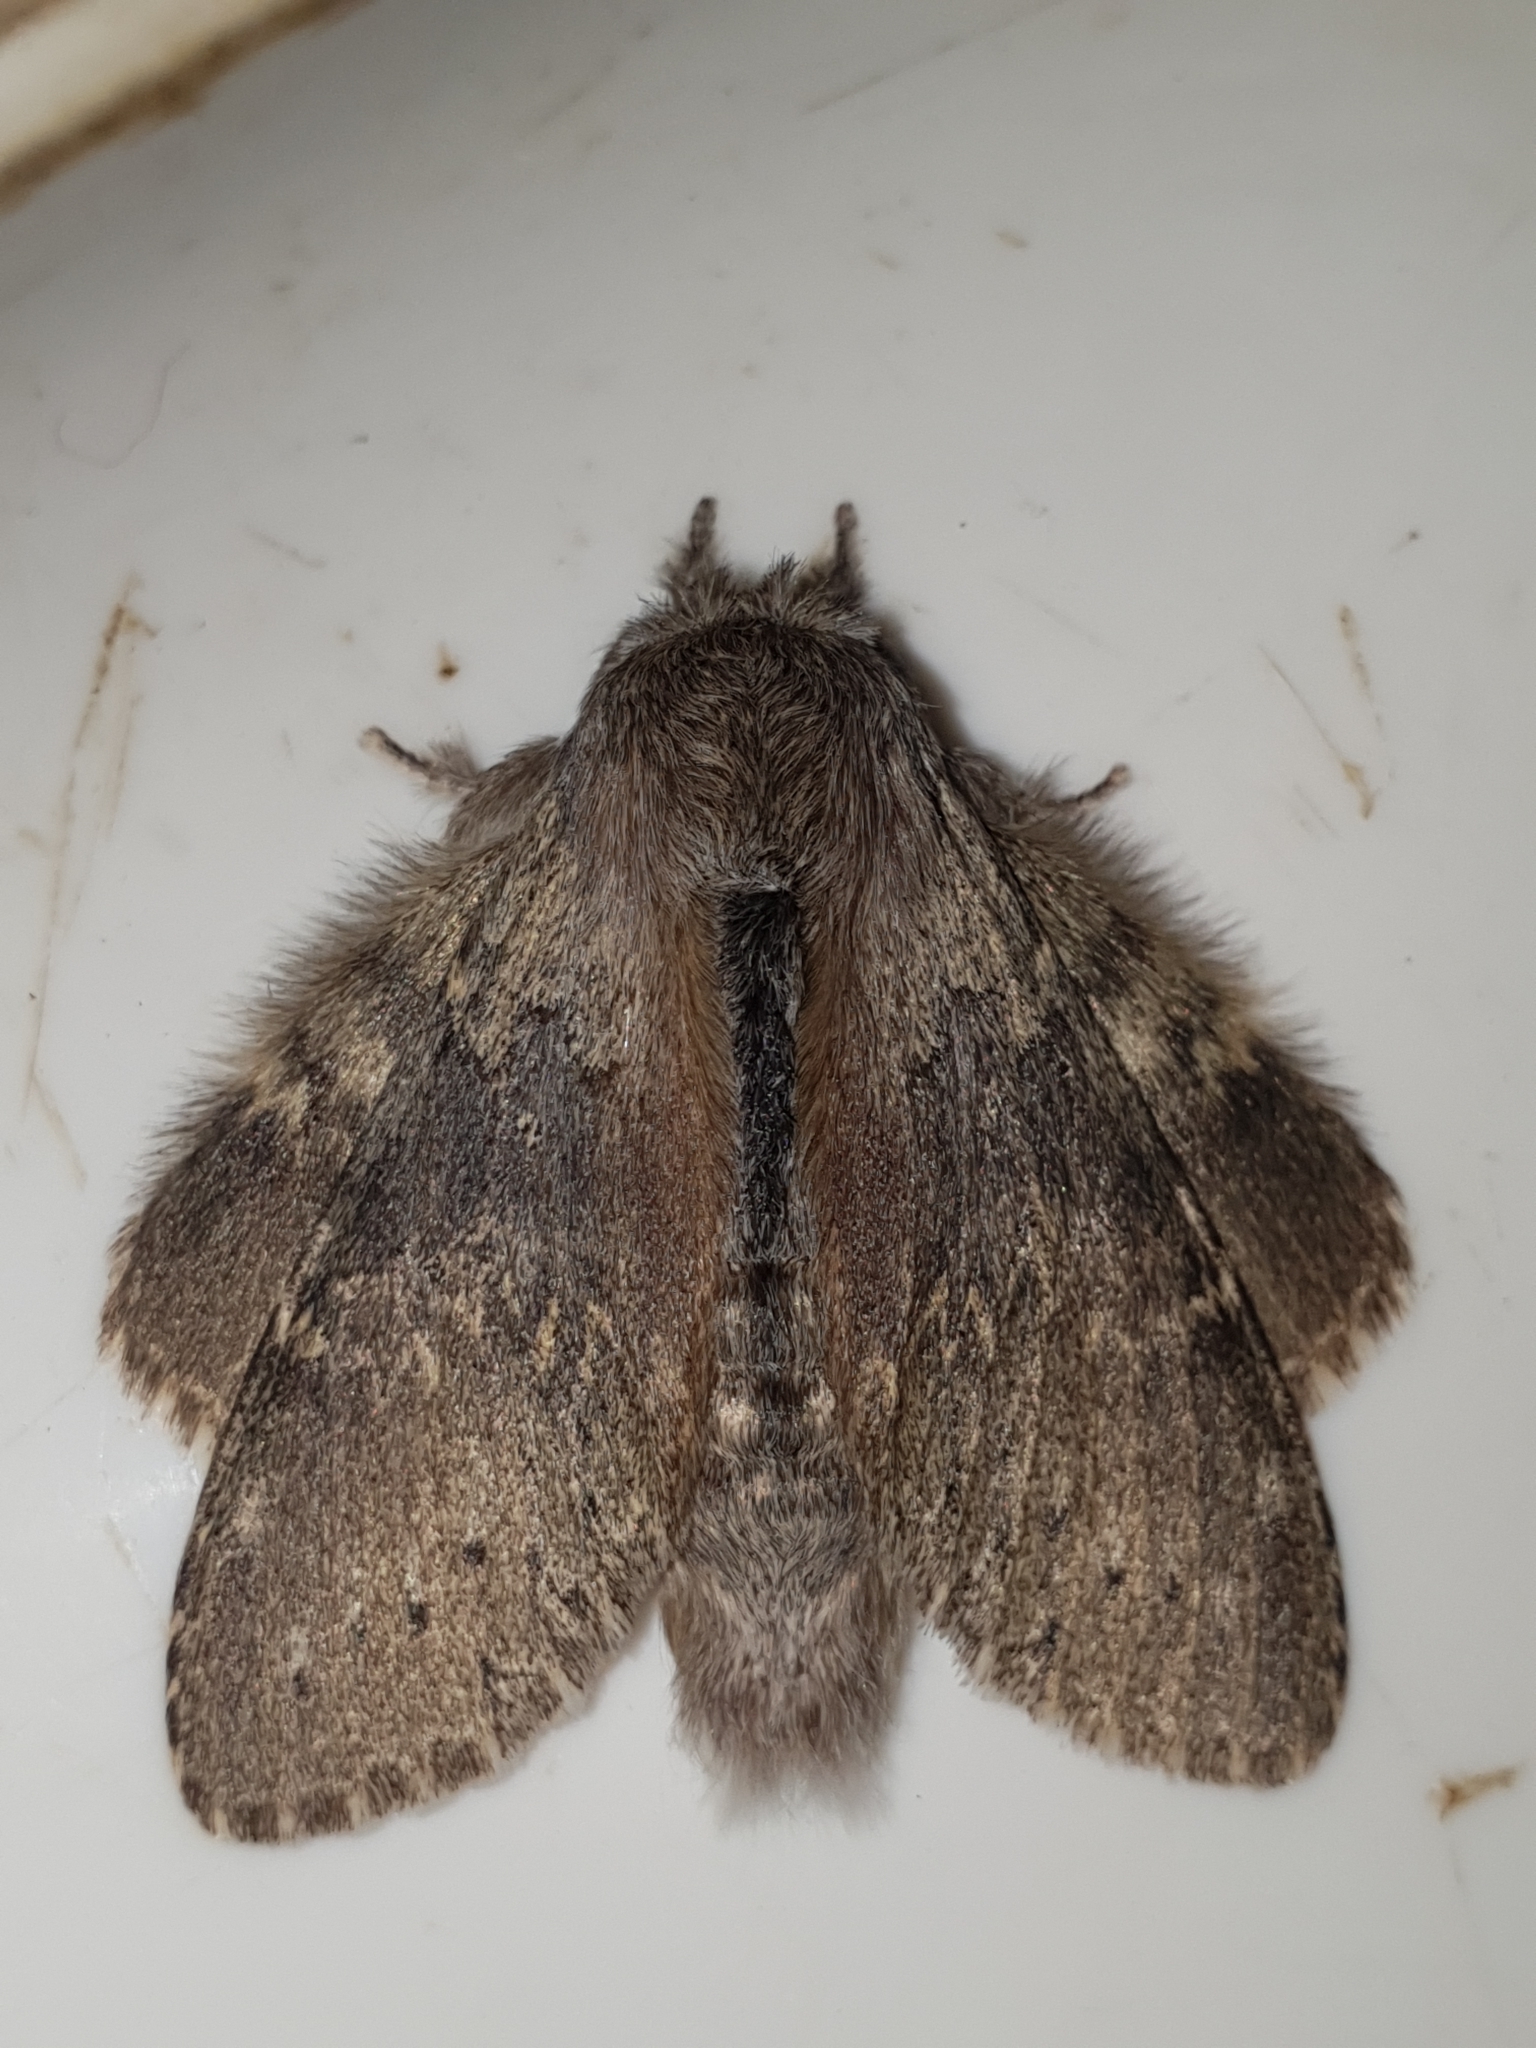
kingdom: Animalia
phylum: Arthropoda
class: Insecta
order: Lepidoptera
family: Notodontidae
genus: Stauropus
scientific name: Stauropus fagi
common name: Lobster moth
